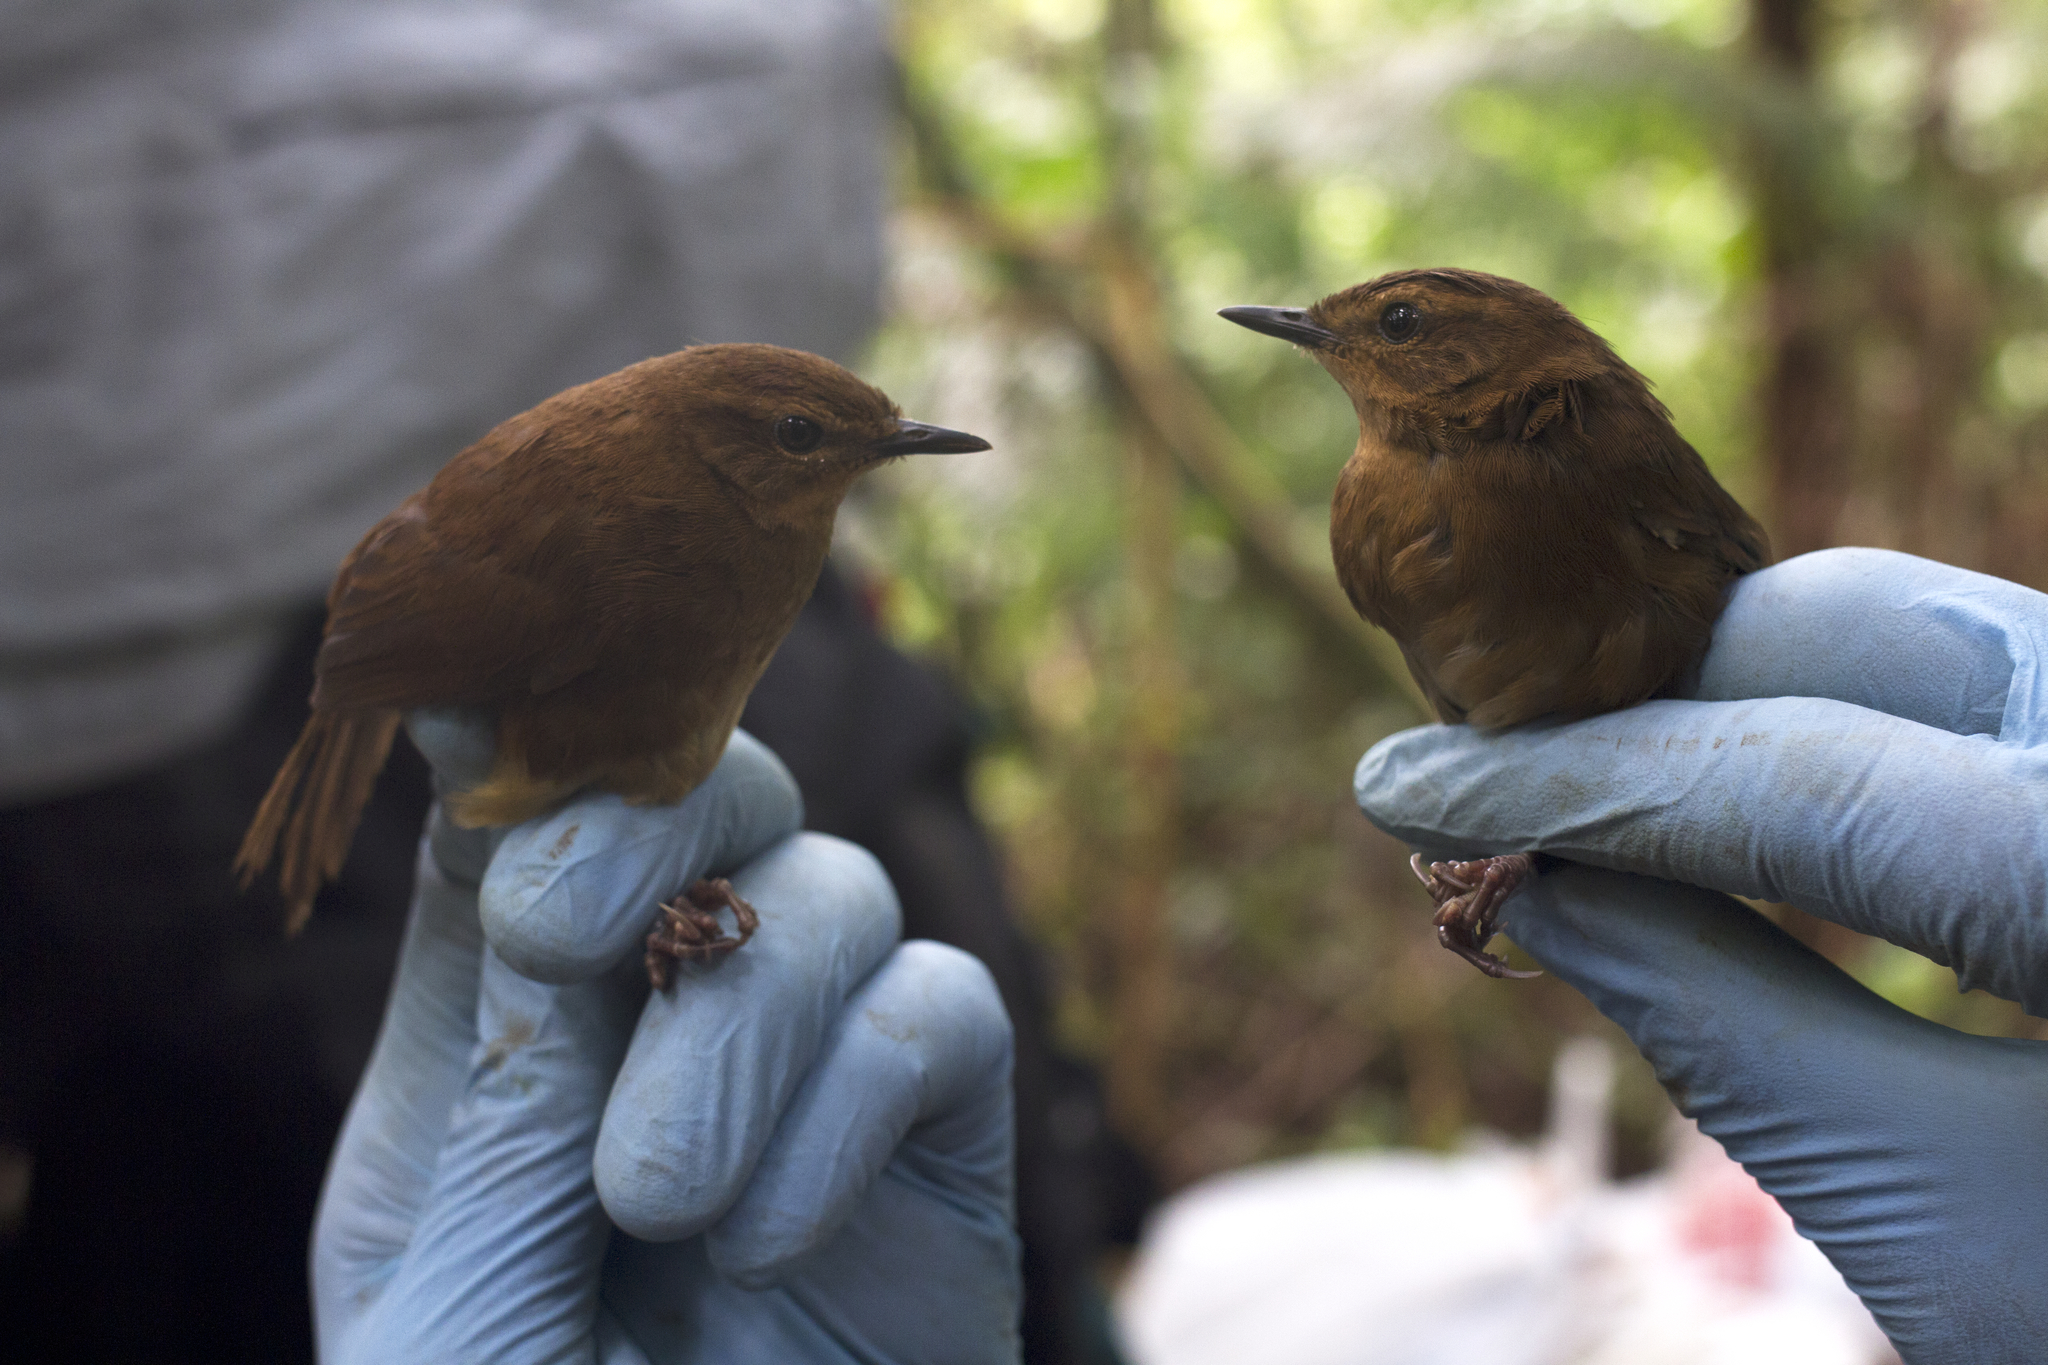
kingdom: Animalia
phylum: Chordata
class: Aves
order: Passeriformes
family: Locustellidae
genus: Bradypterus
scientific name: Bradypterus lopezi
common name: Evergreen forest warbler
